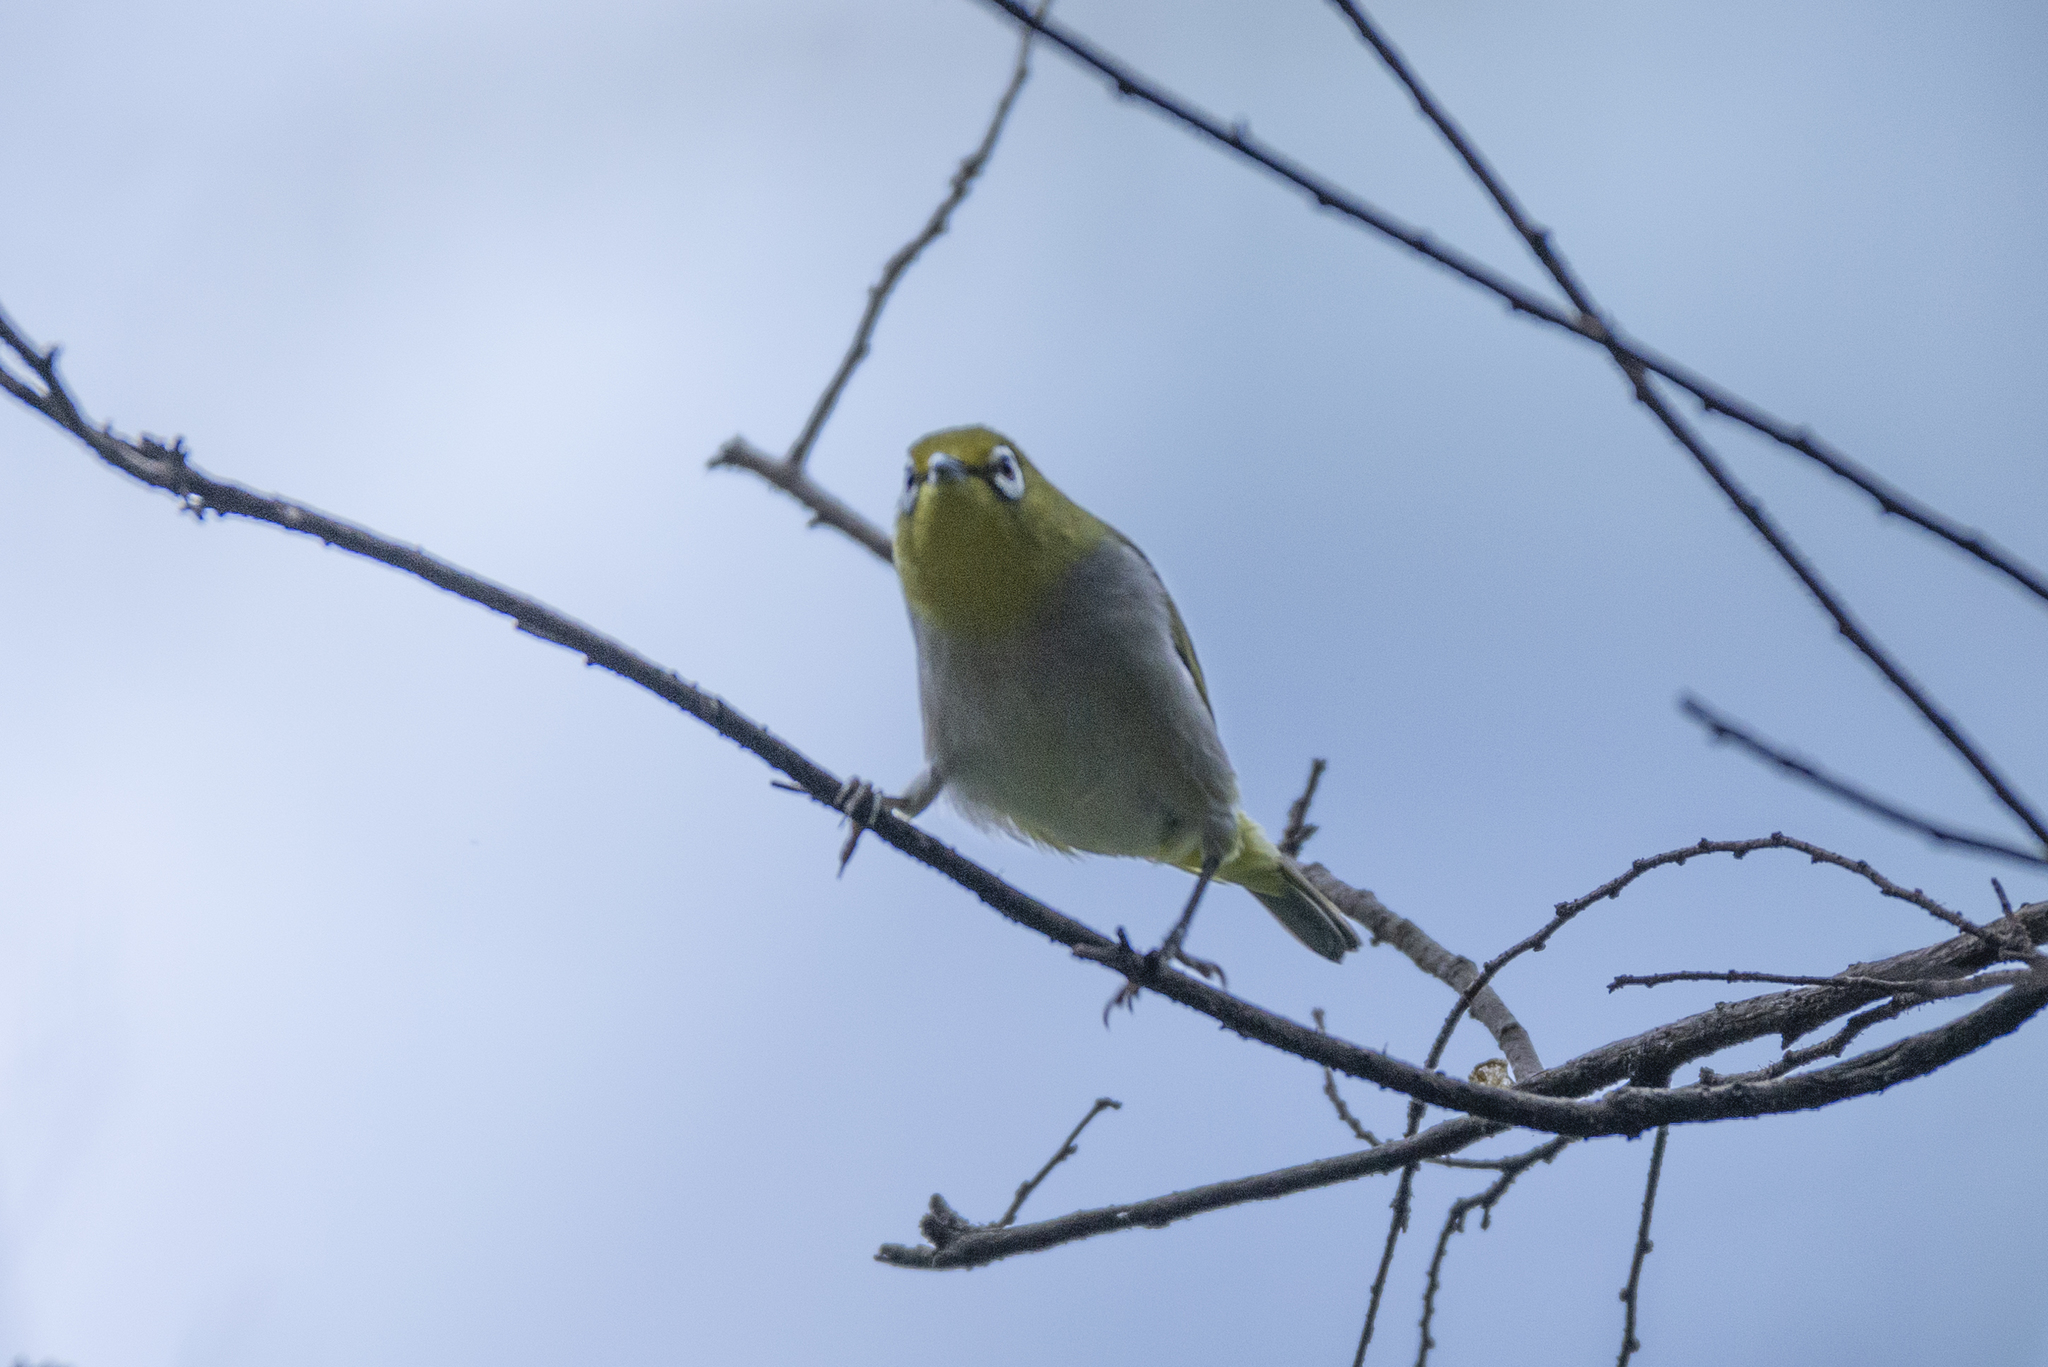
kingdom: Animalia
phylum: Chordata
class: Aves
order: Passeriformes
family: Zosteropidae
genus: Zosterops
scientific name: Zosterops simplex
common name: Swinhoe's white-eye
